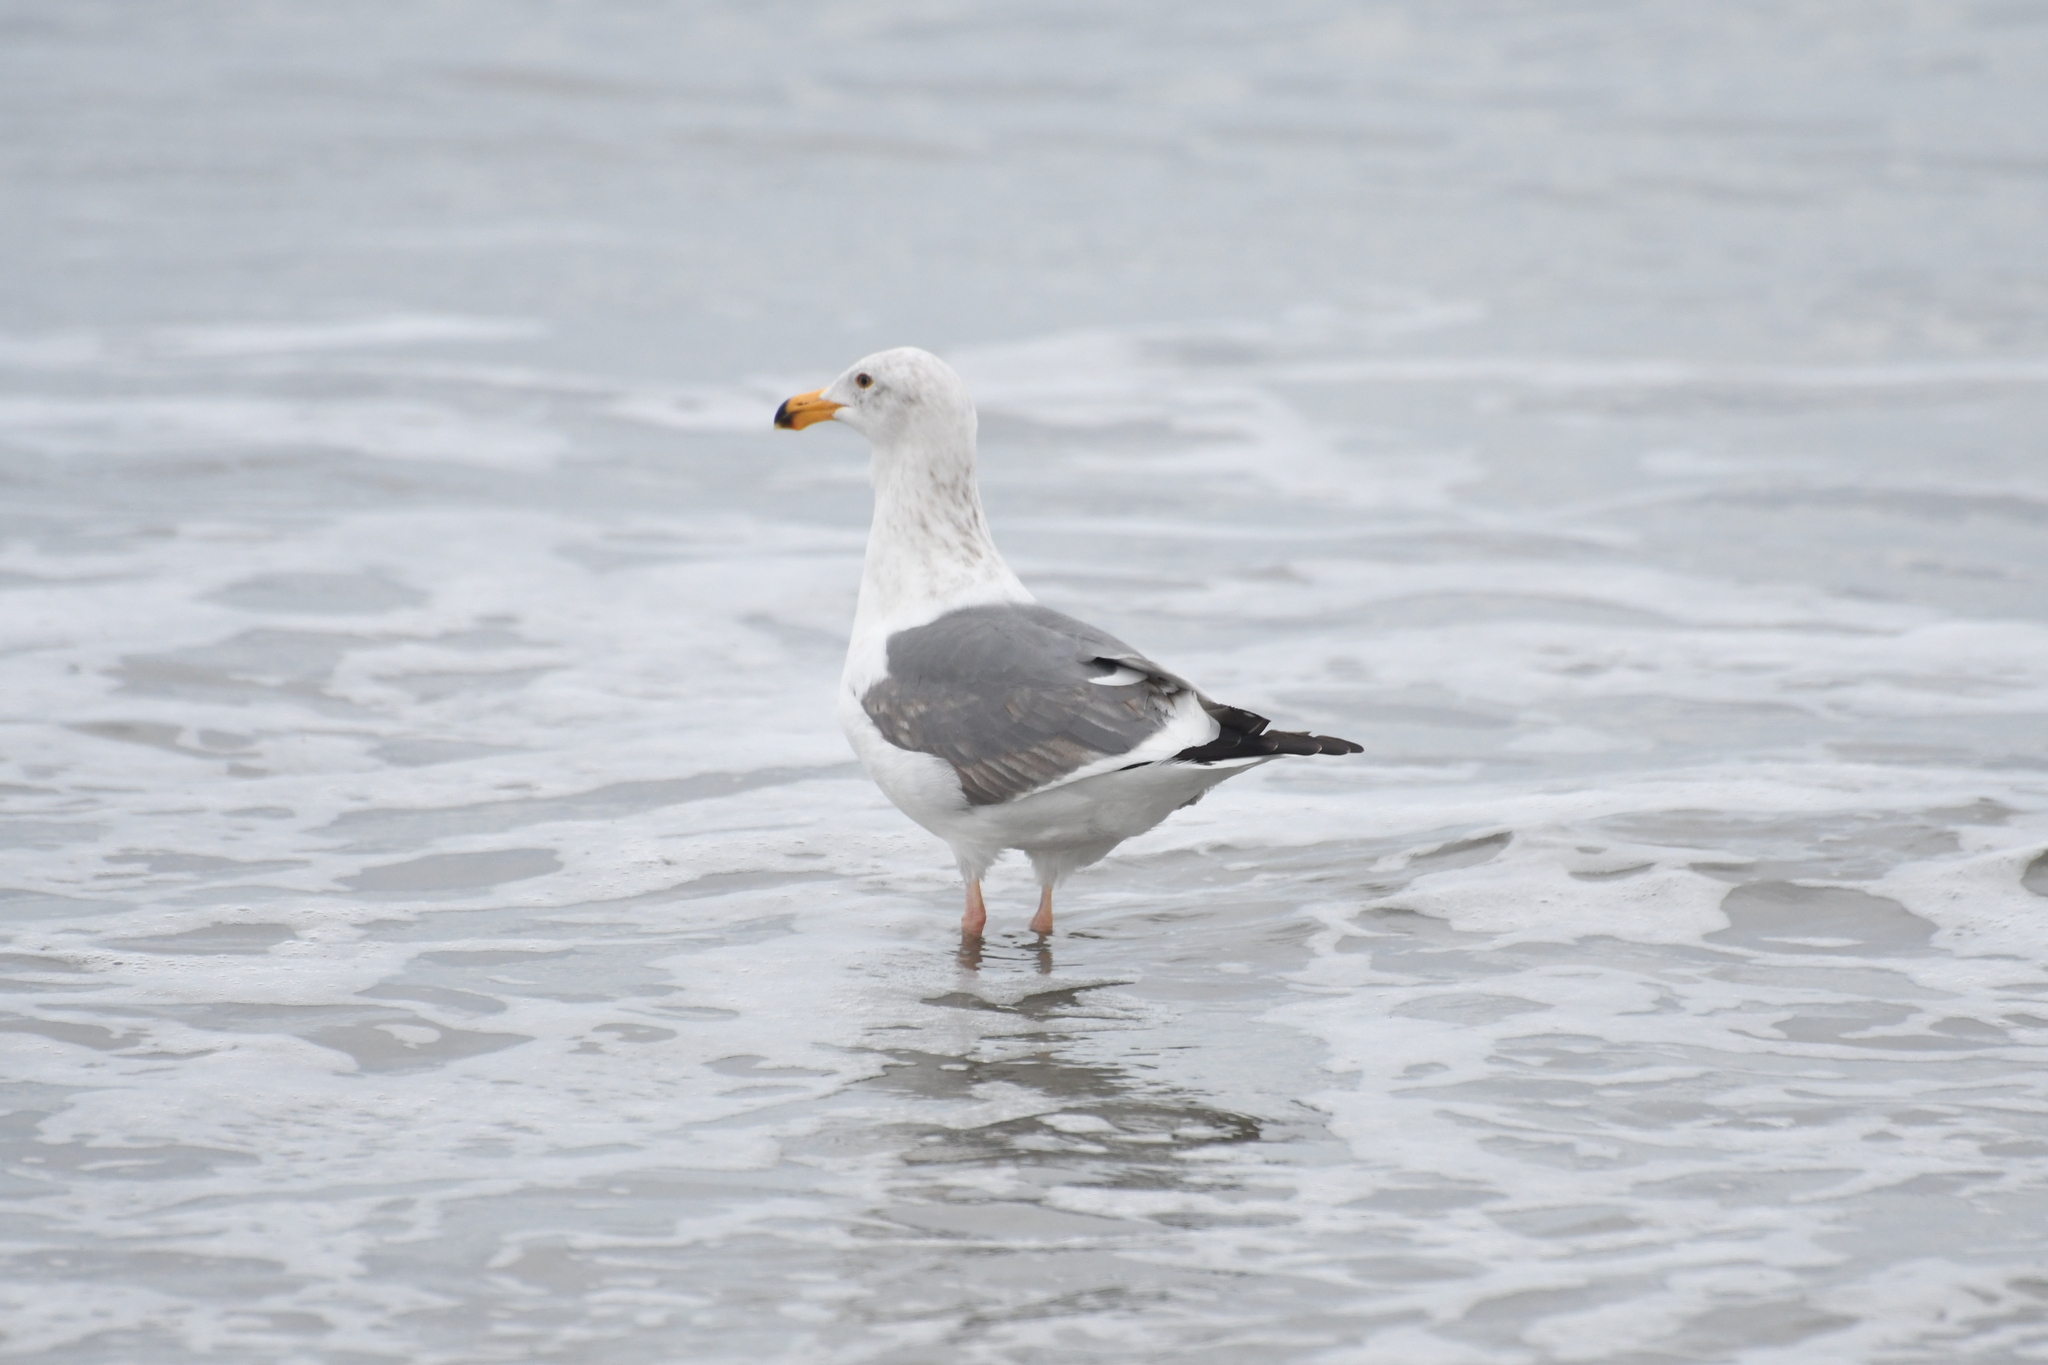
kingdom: Animalia
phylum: Chordata
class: Aves
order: Charadriiformes
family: Laridae
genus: Larus
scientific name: Larus occidentalis
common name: Western gull
